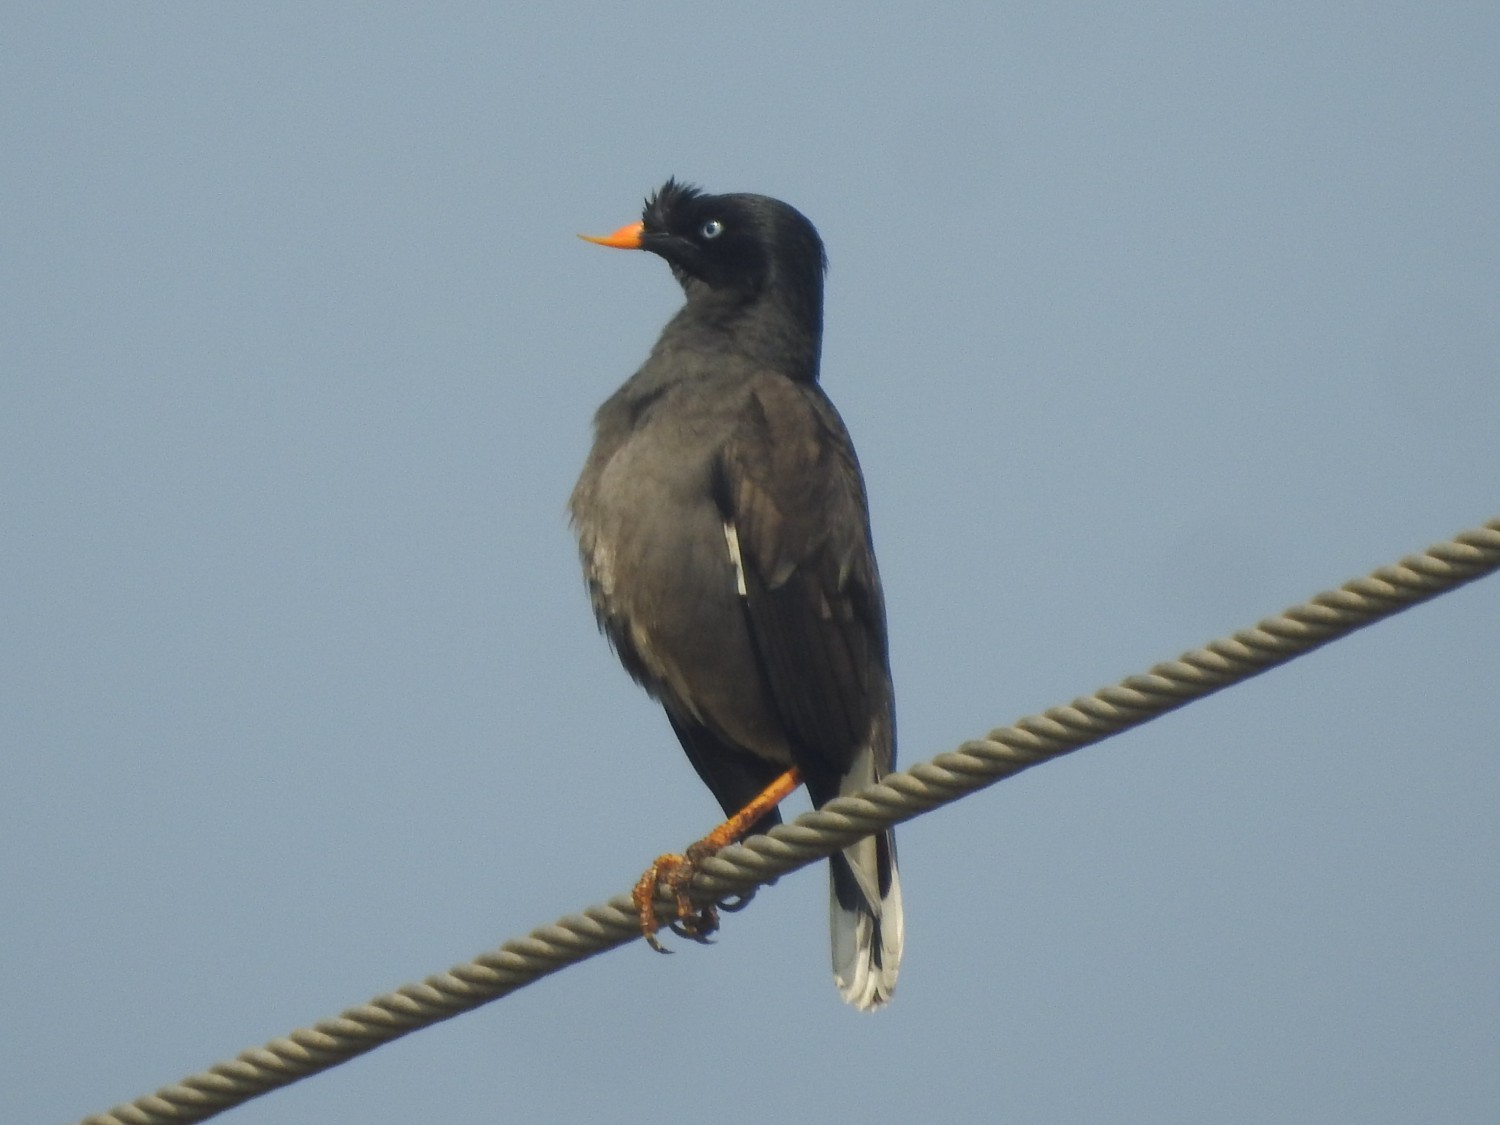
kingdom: Animalia
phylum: Chordata
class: Aves
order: Passeriformes
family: Sturnidae
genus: Acridotheres
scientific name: Acridotheres fuscus
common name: Jungle myna
